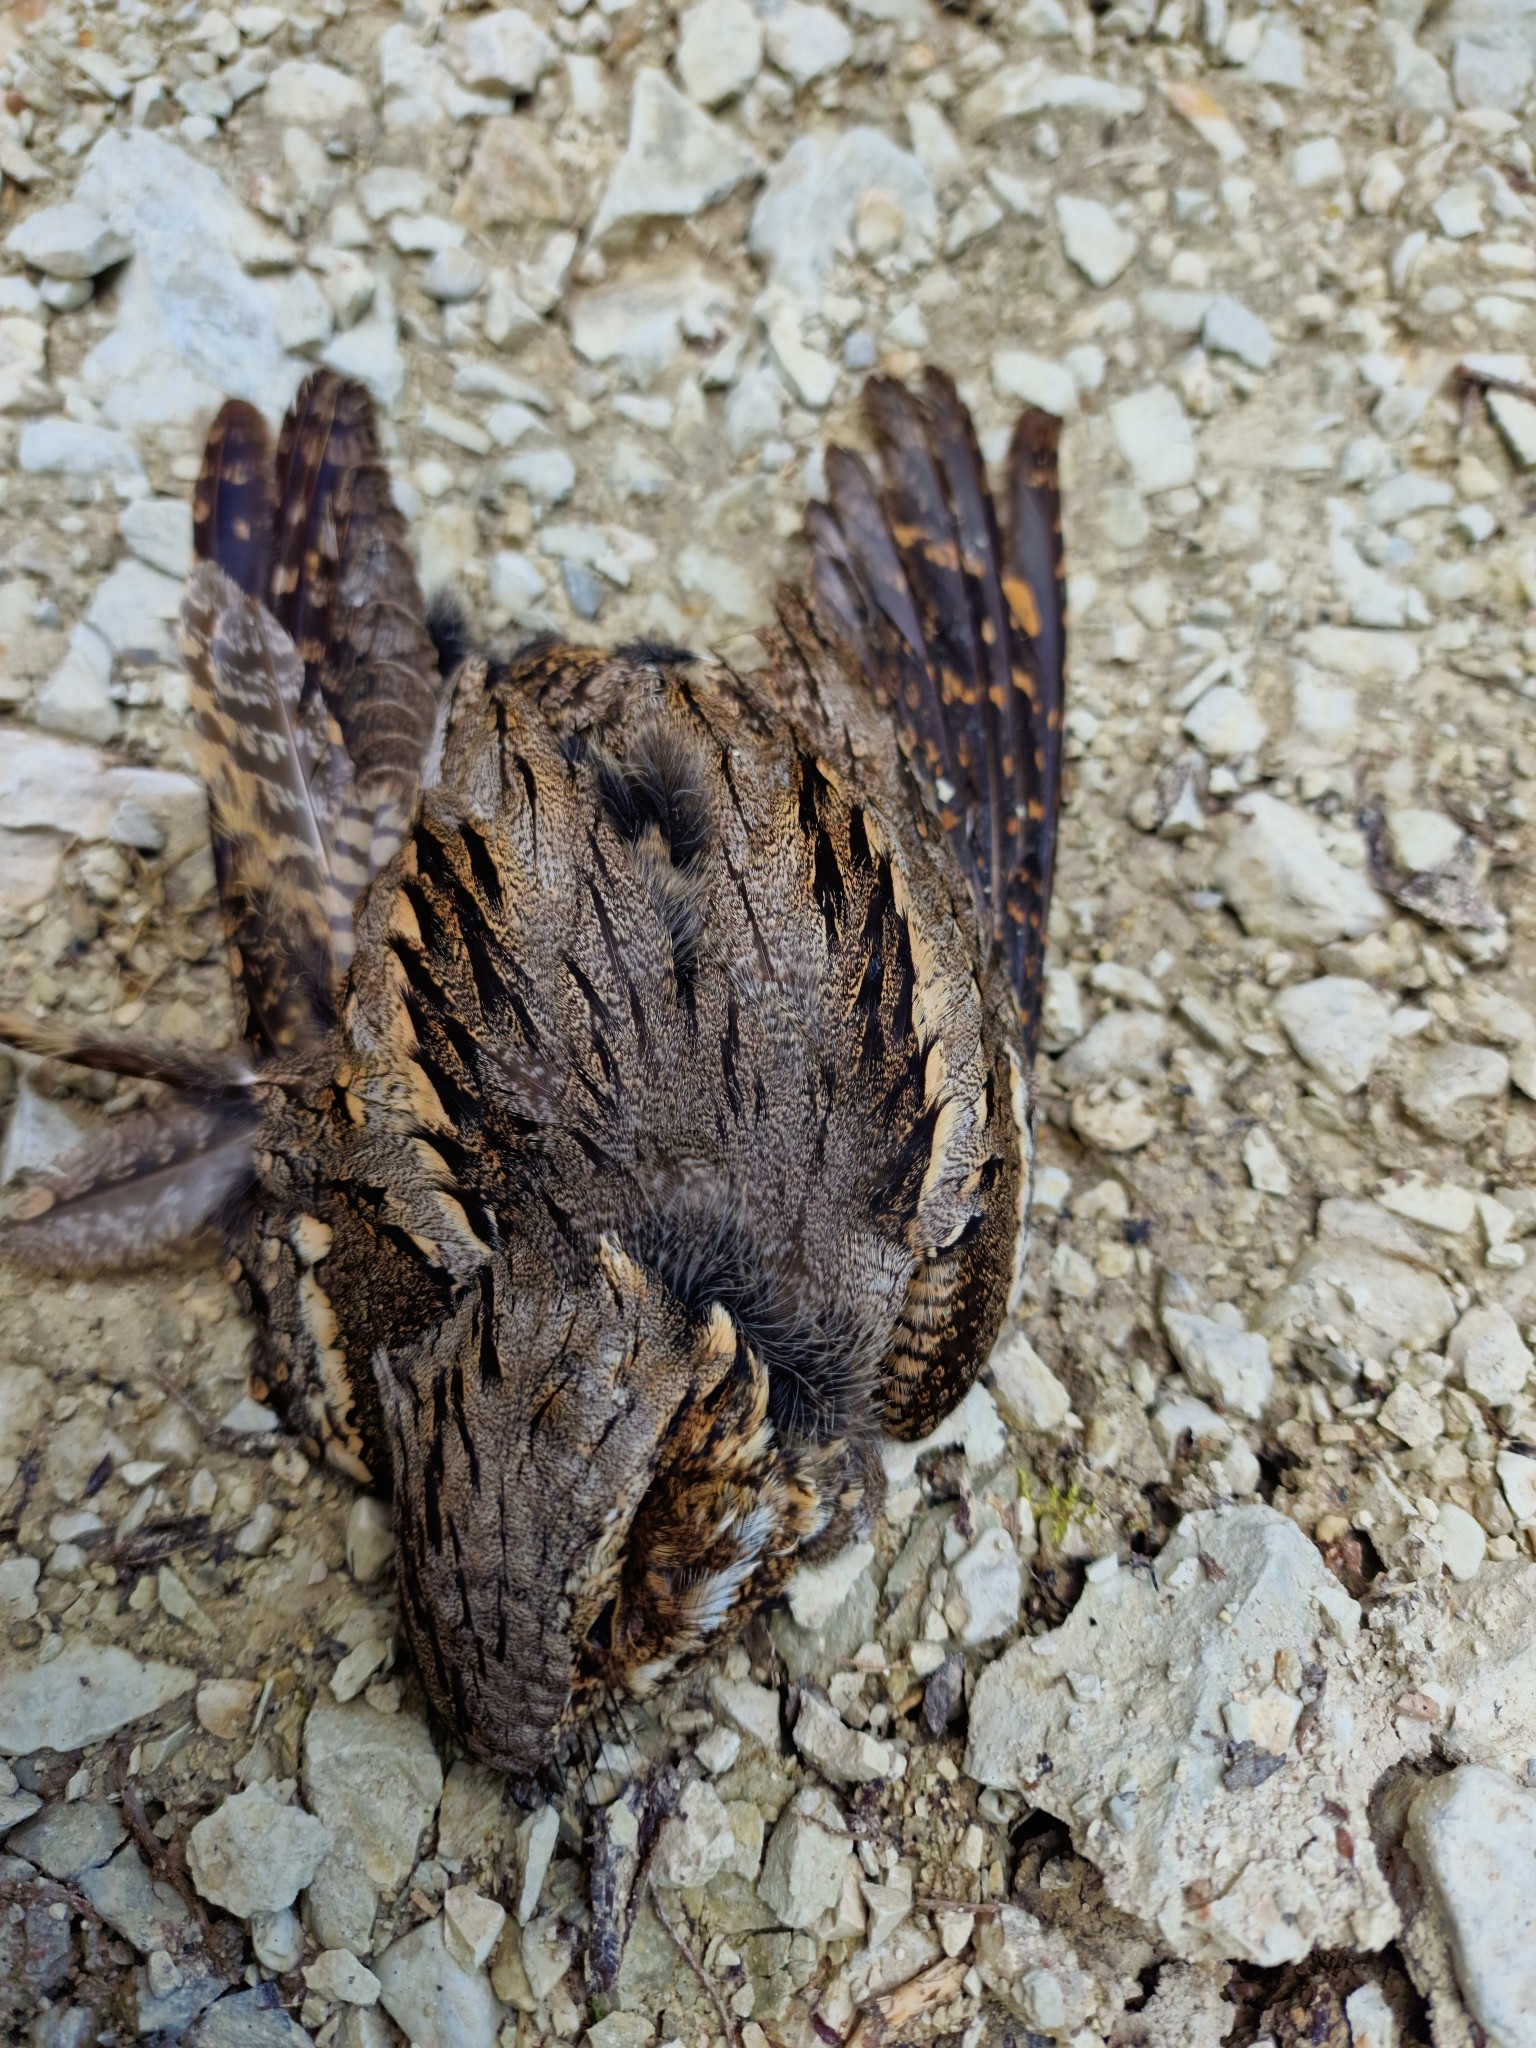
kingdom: Animalia
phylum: Chordata
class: Aves
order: Caprimulgiformes
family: Caprimulgidae
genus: Caprimulgus
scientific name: Caprimulgus europaeus
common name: European nightjar
